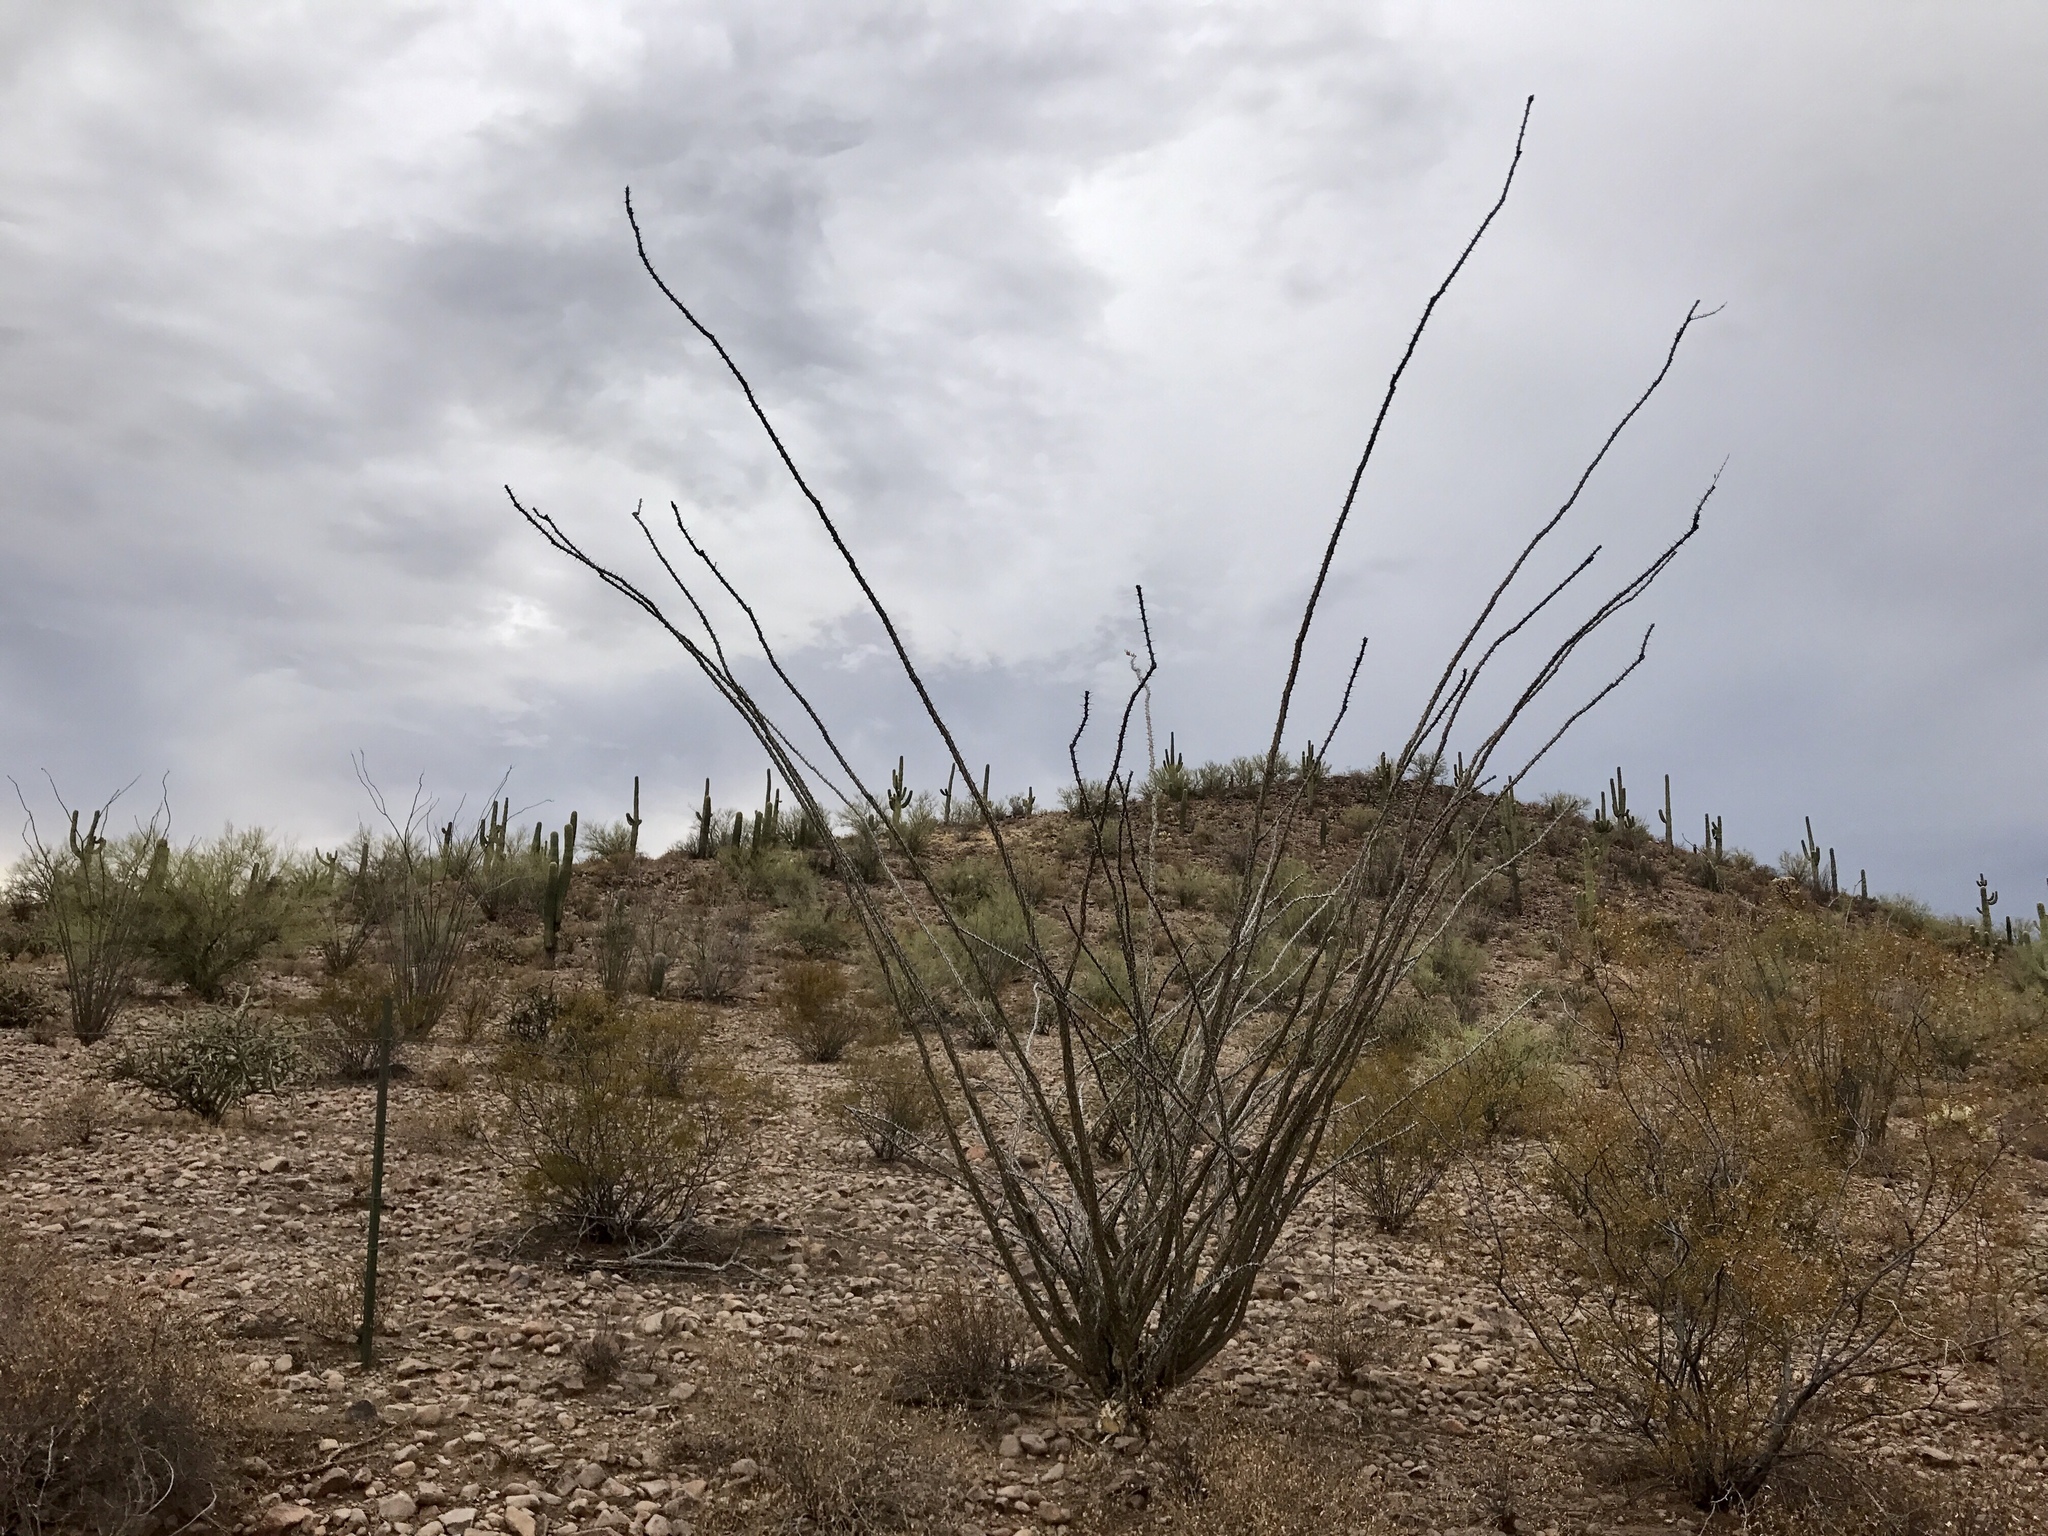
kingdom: Plantae
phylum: Tracheophyta
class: Magnoliopsida
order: Ericales
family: Fouquieriaceae
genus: Fouquieria
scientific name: Fouquieria splendens
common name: Vine-cactus
